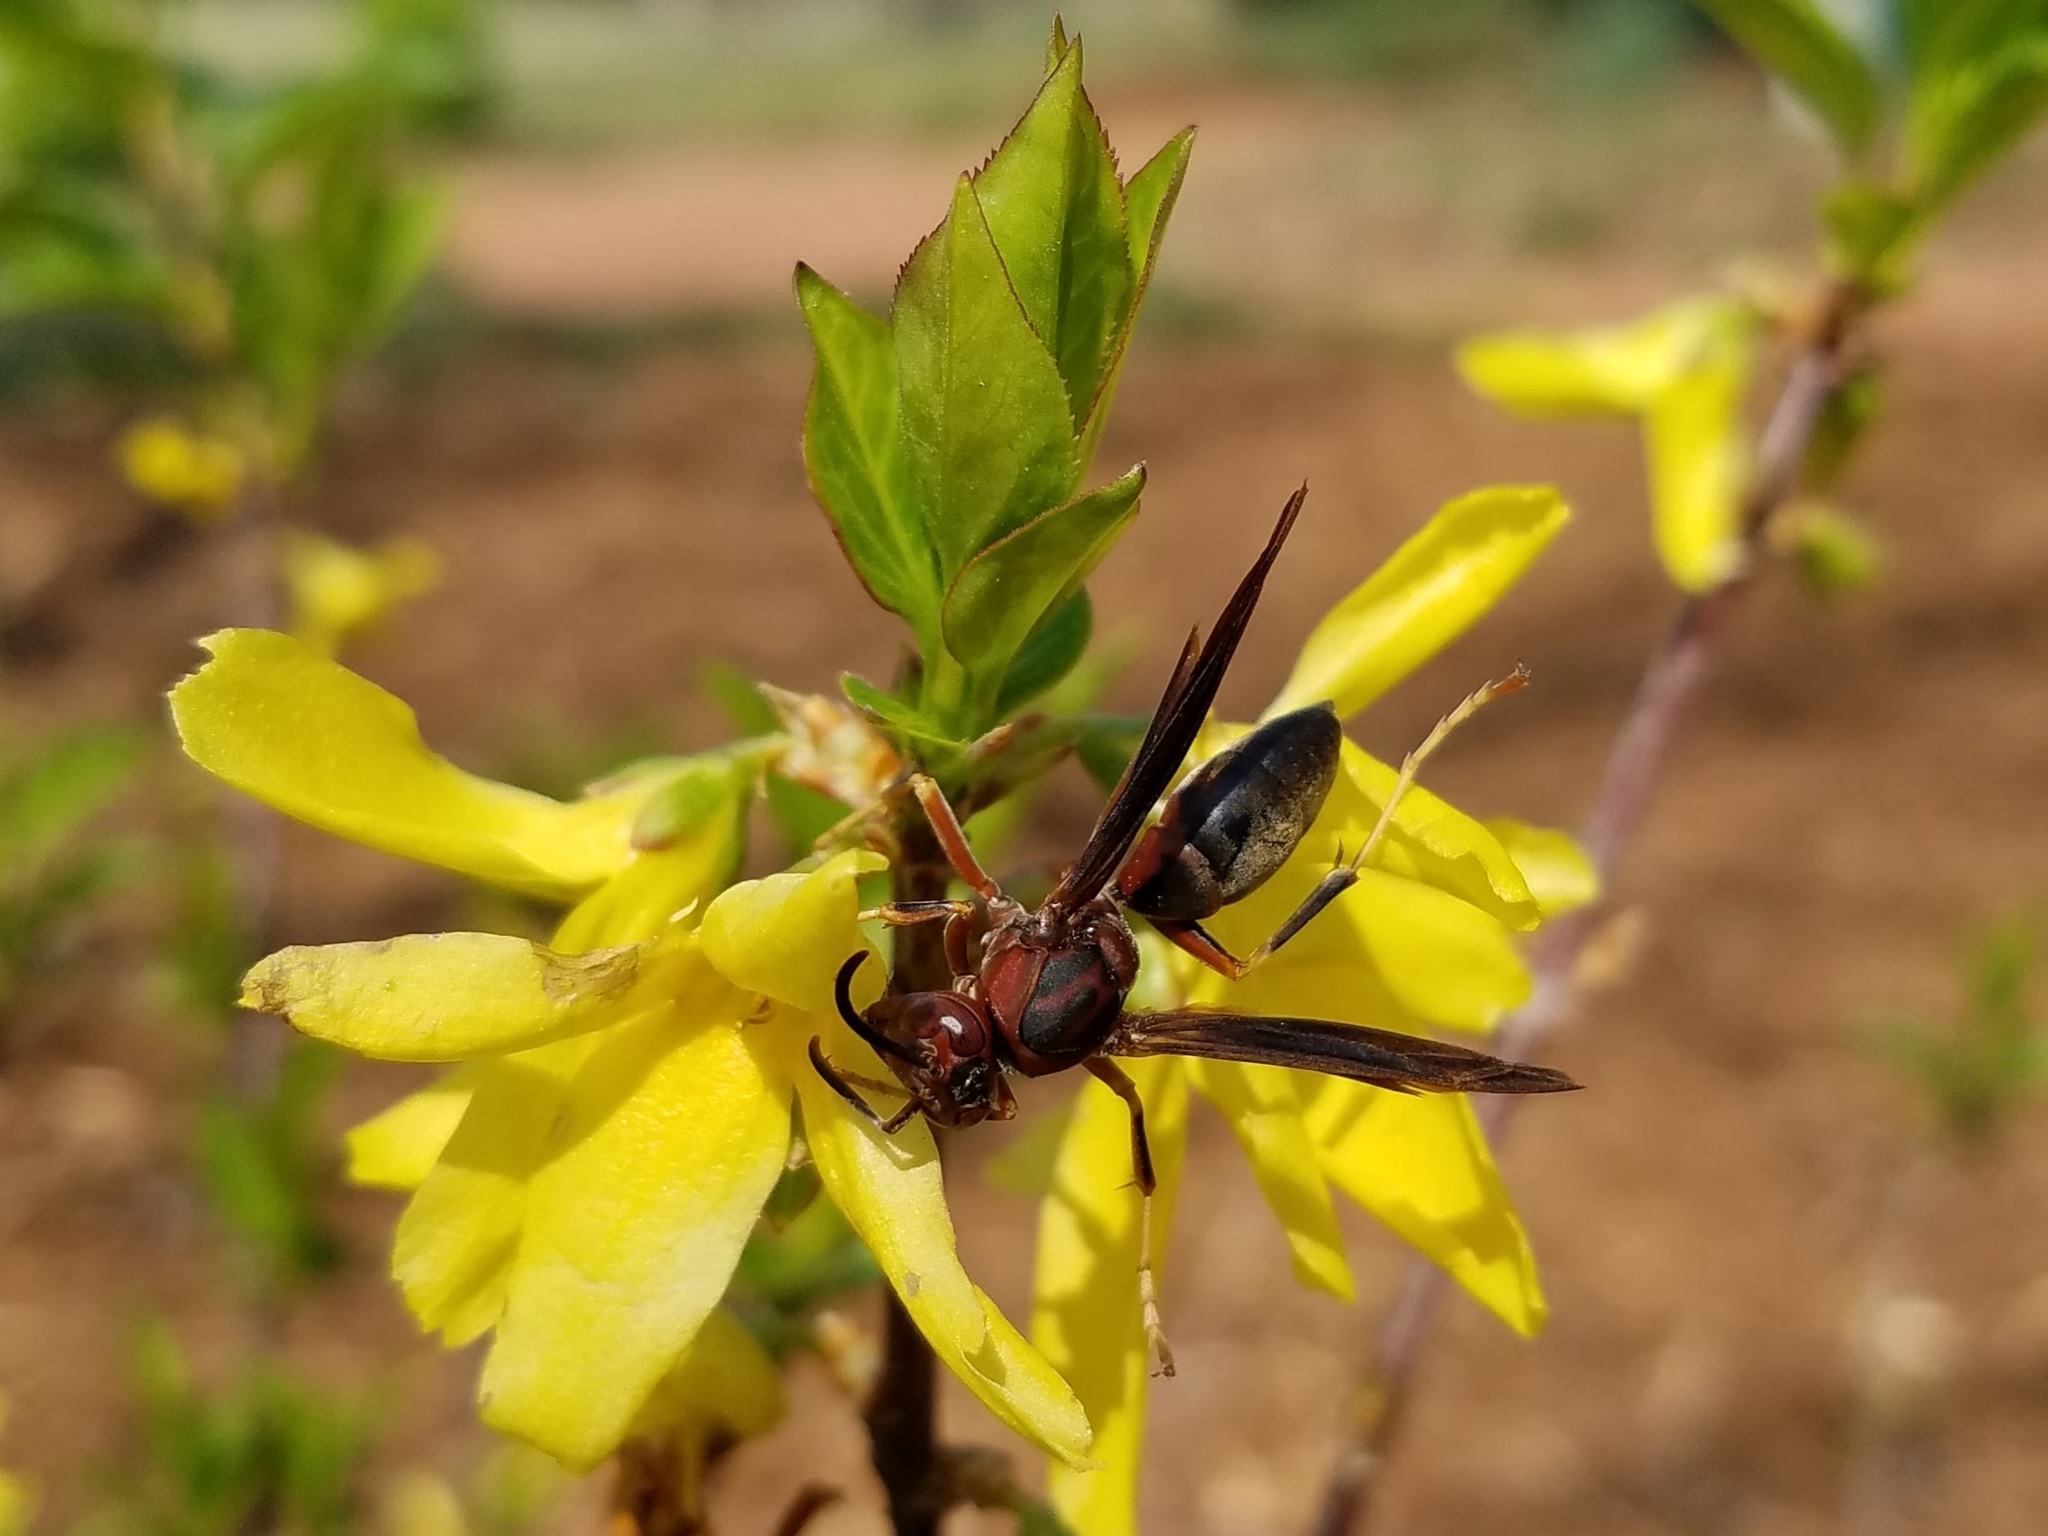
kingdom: Animalia
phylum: Arthropoda
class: Insecta
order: Hymenoptera
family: Eumenidae
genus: Polistes
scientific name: Polistes metricus
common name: Metric paper wasp
